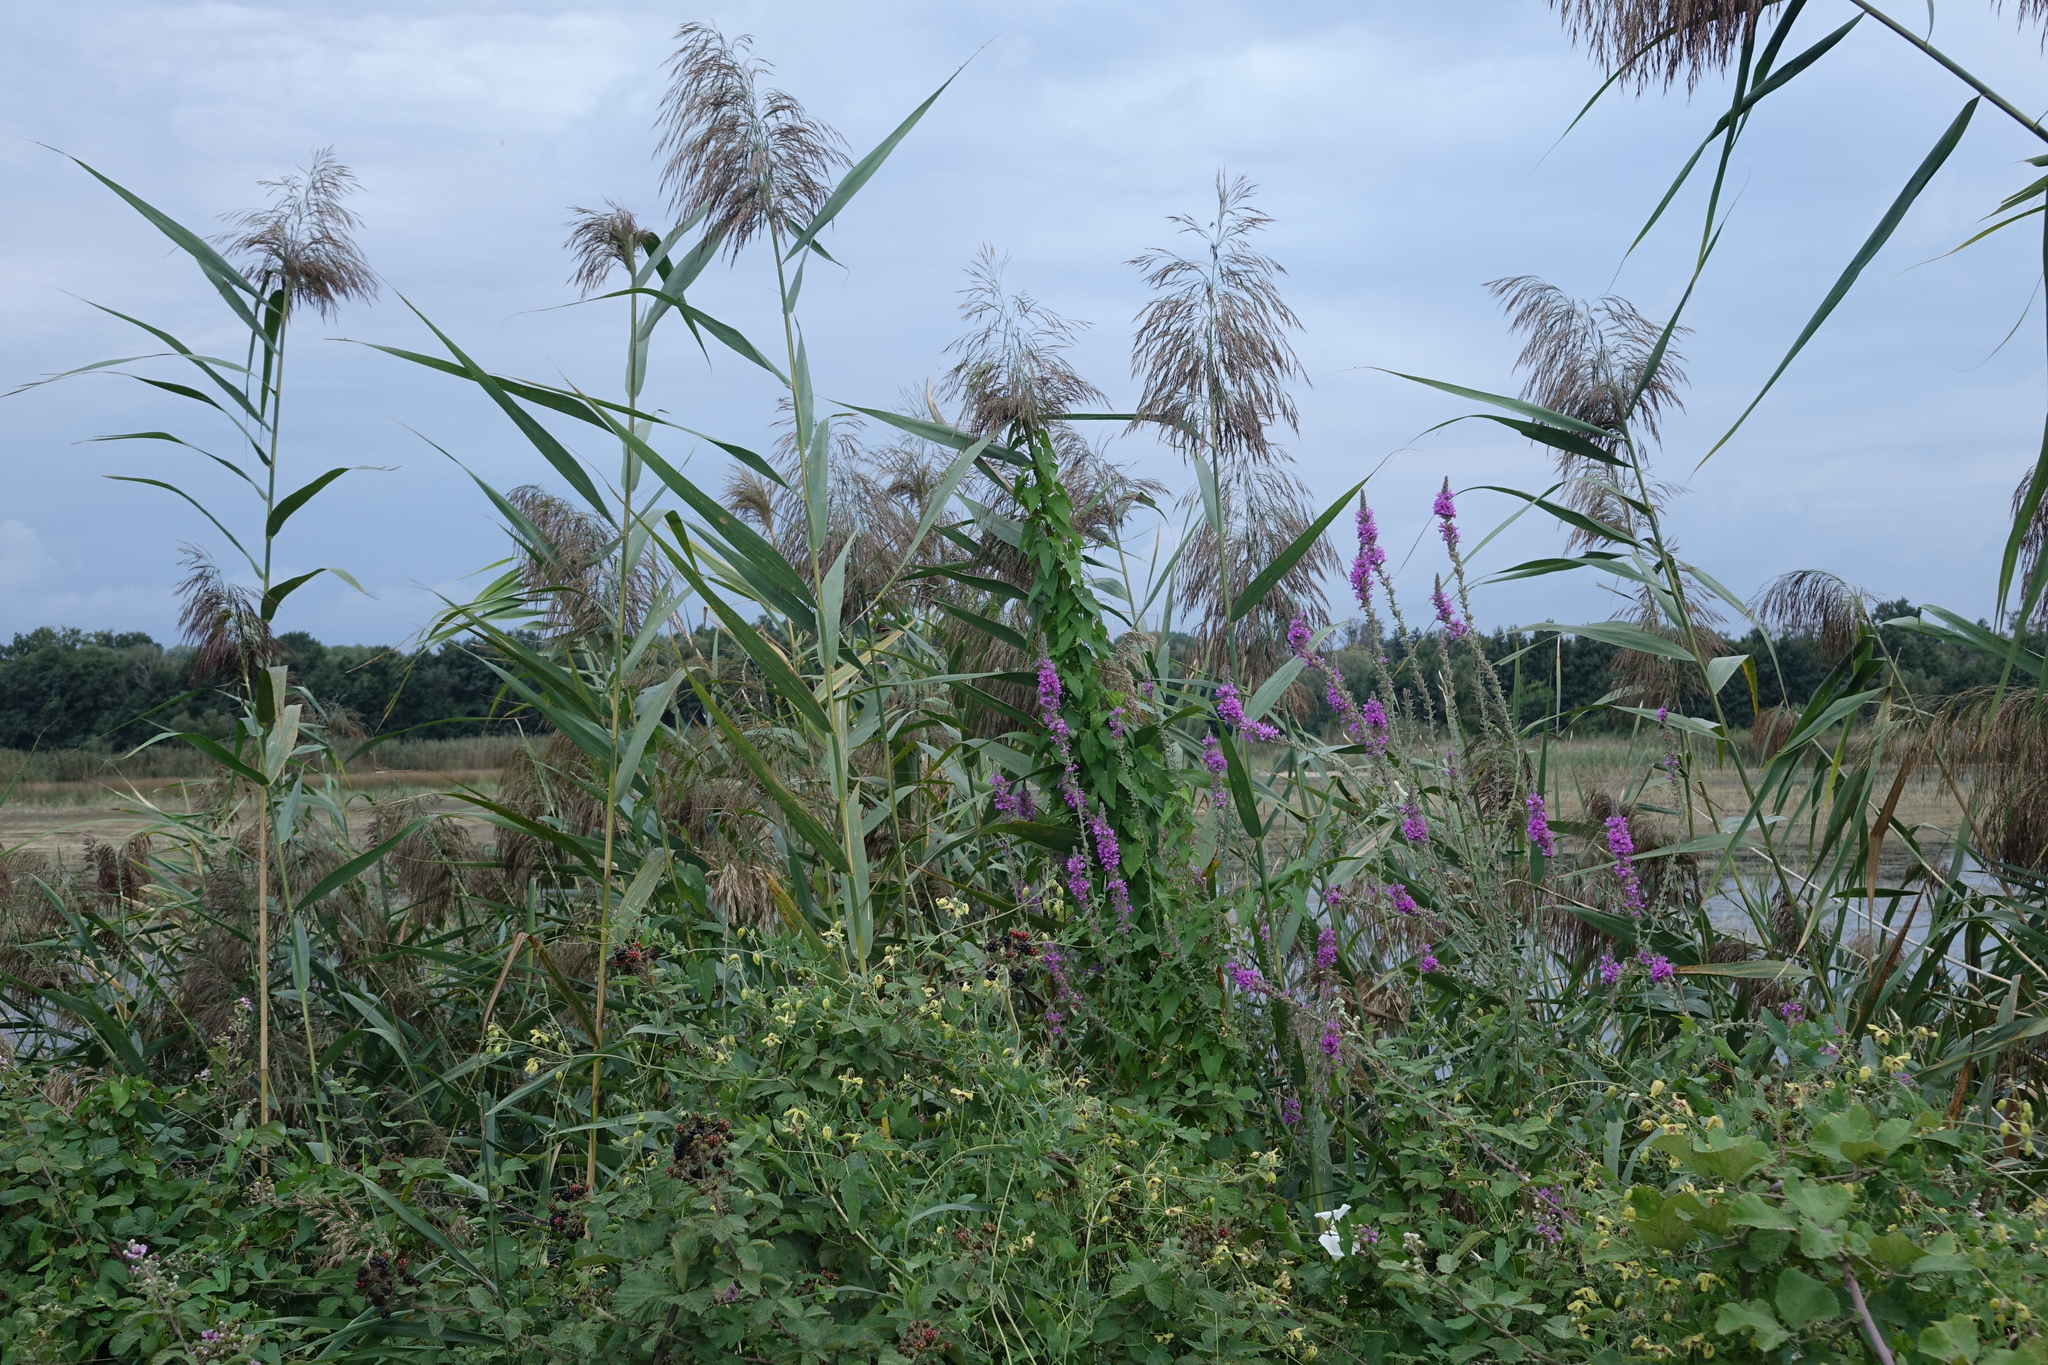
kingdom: Plantae
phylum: Tracheophyta
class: Liliopsida
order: Poales
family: Poaceae
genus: Phragmites
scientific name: Phragmites australis
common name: Common reed
